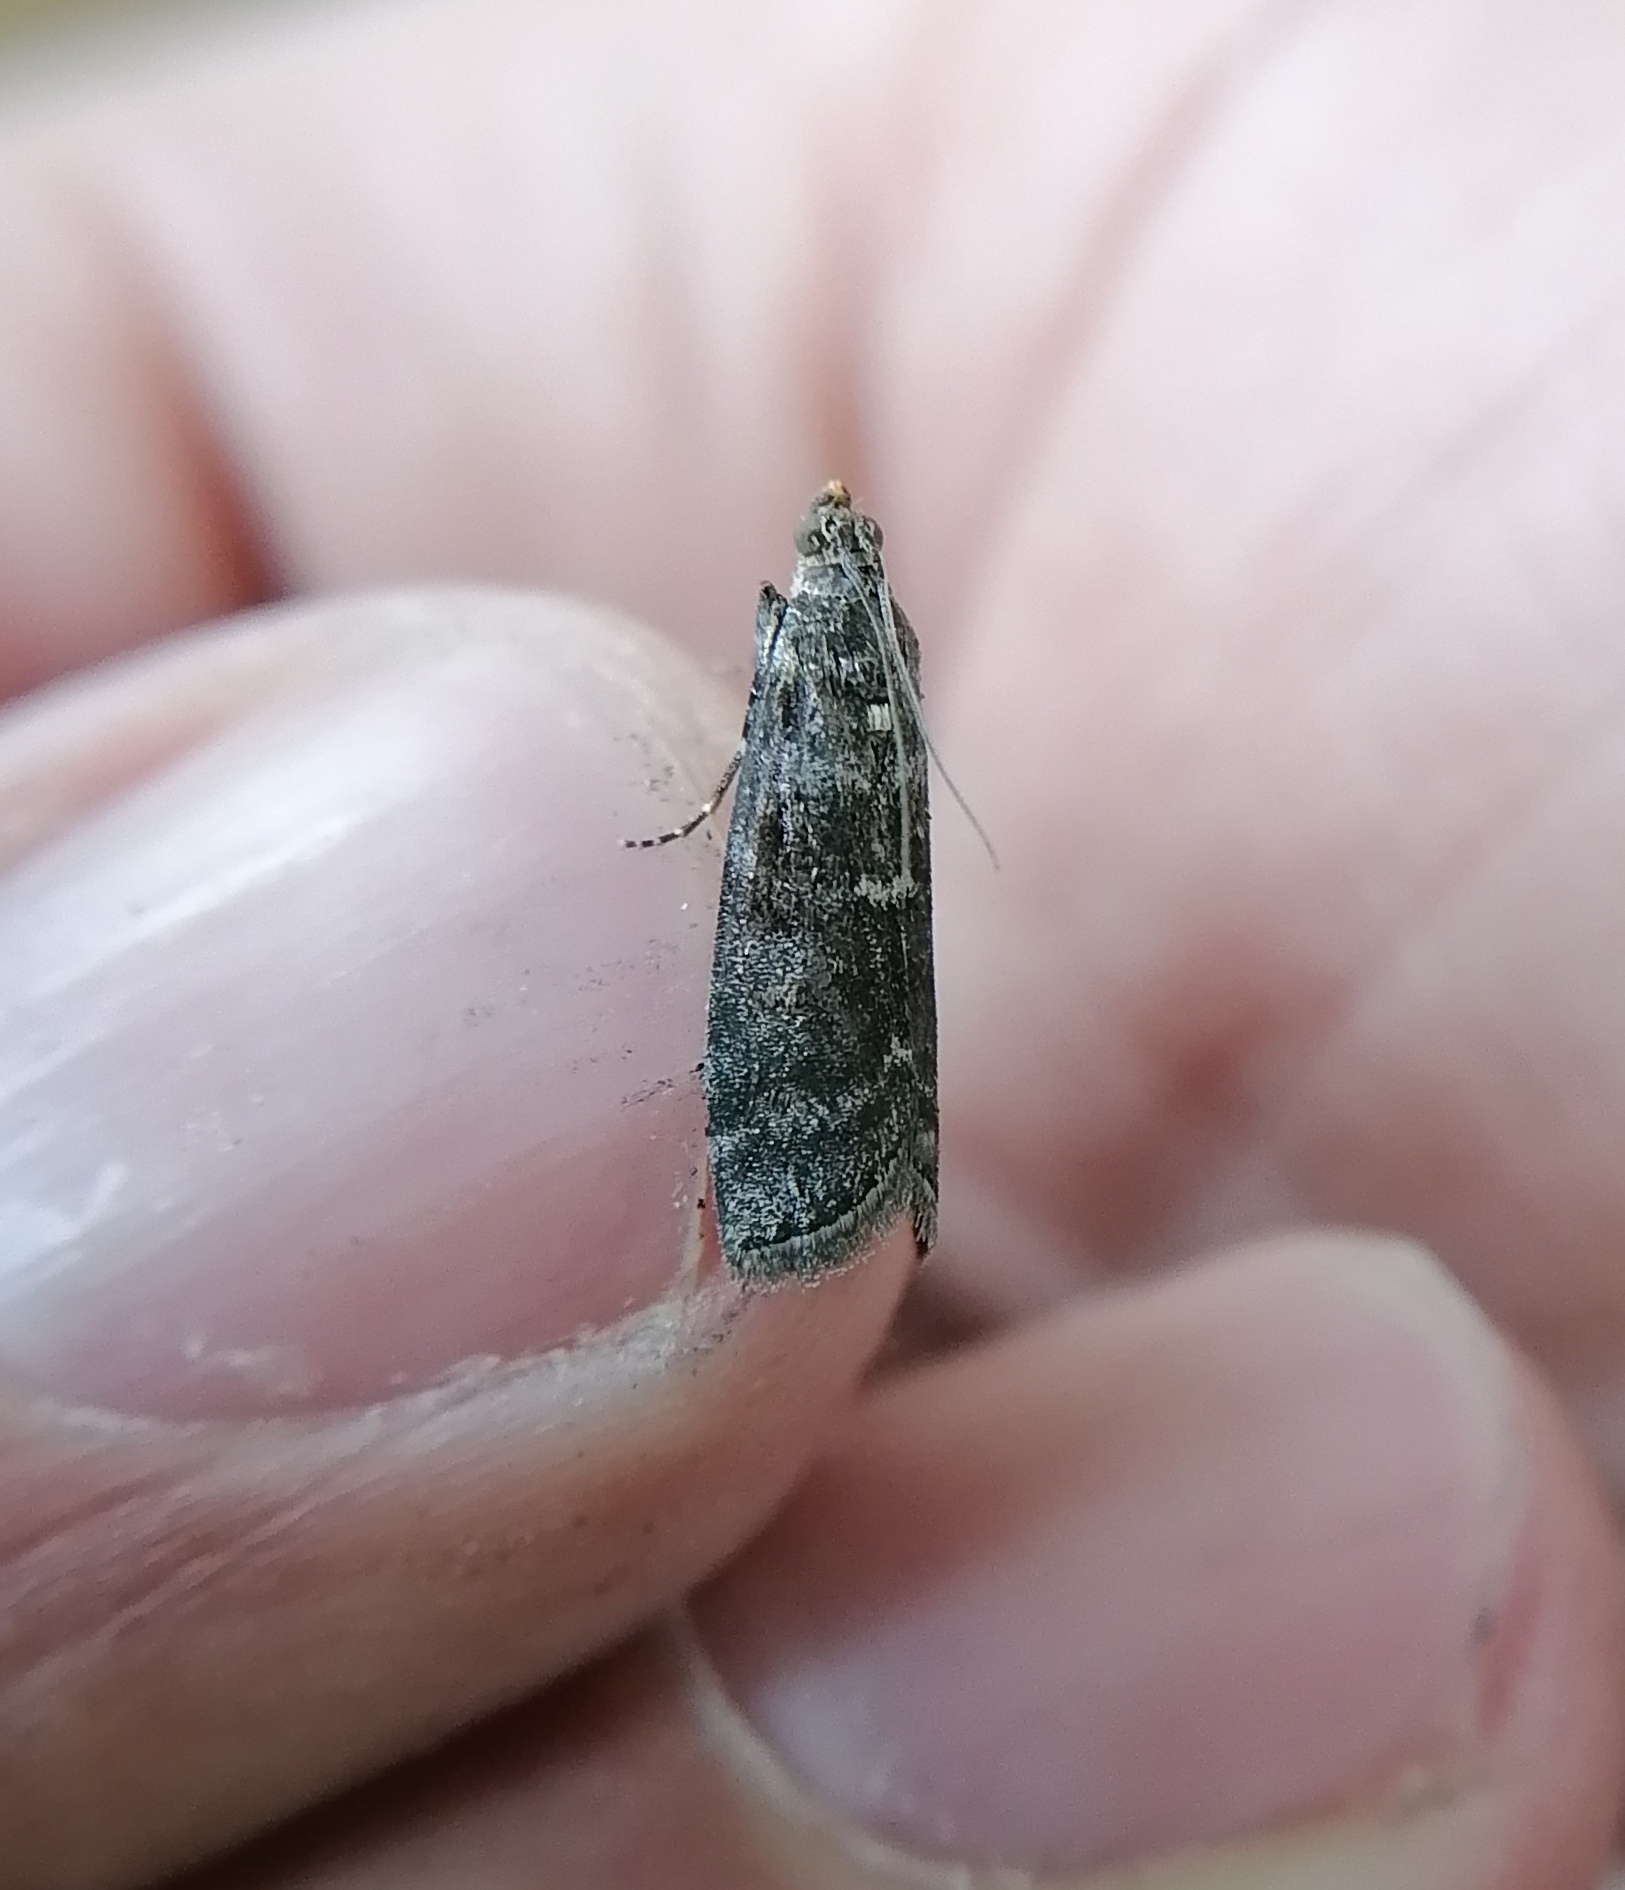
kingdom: Animalia
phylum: Arthropoda
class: Insecta
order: Lepidoptera
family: Pyralidae
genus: Pyla
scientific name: Pyla fusca
